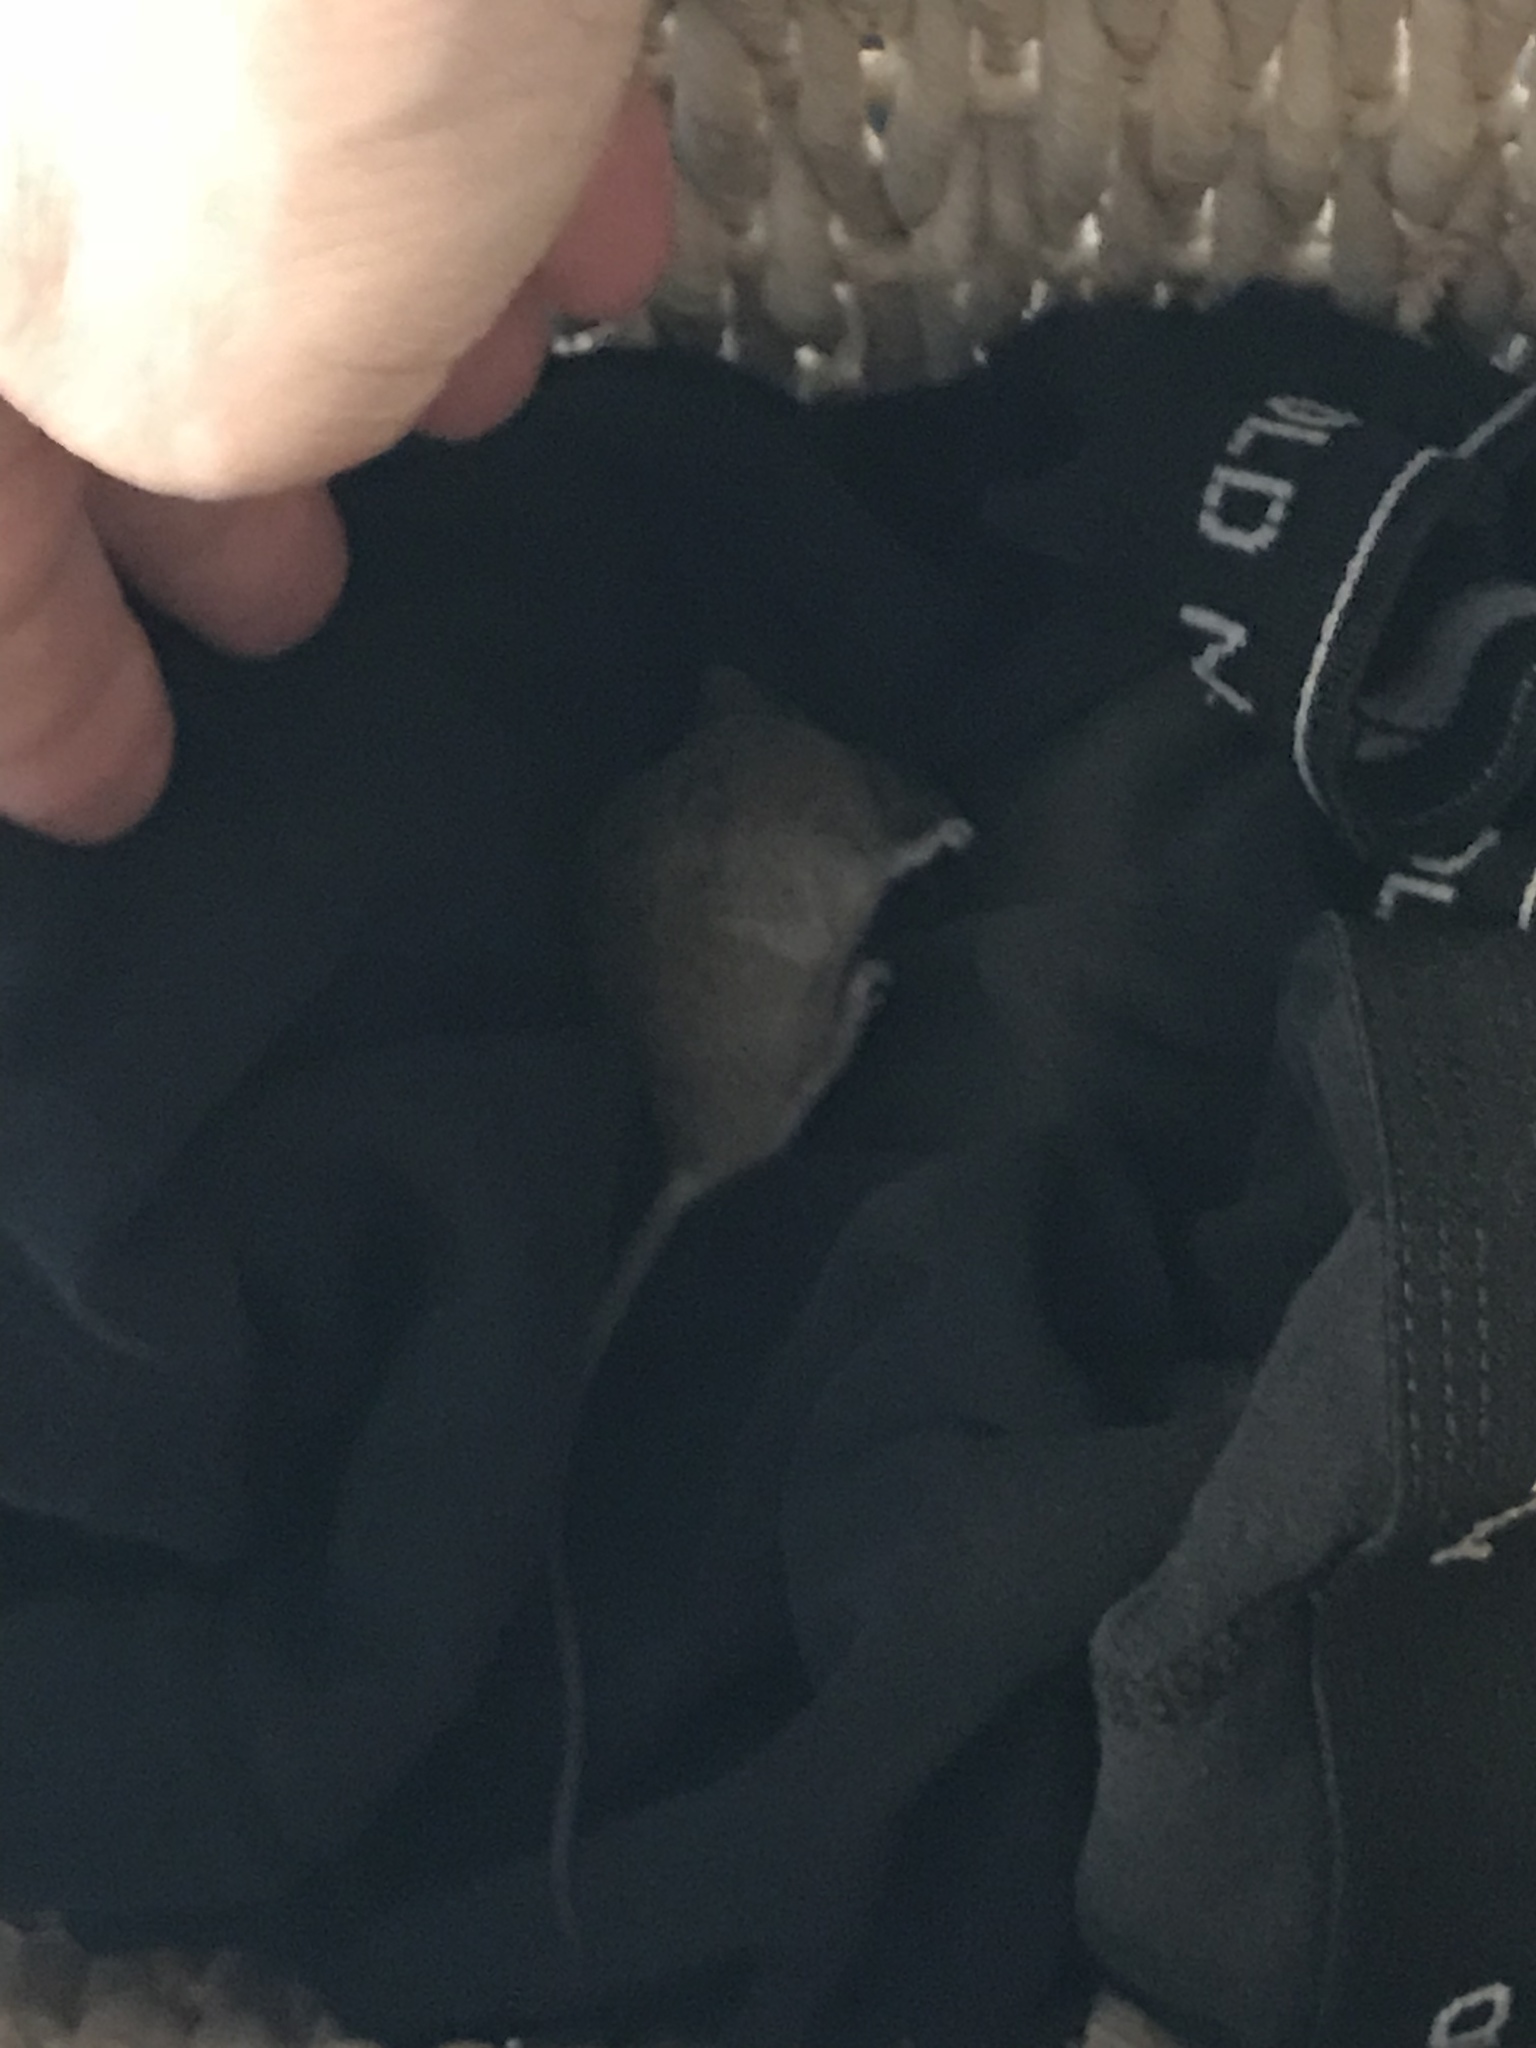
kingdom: Animalia
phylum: Chordata
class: Mammalia
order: Rodentia
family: Muridae
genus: Mus
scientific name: Mus musculus
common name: House mouse
